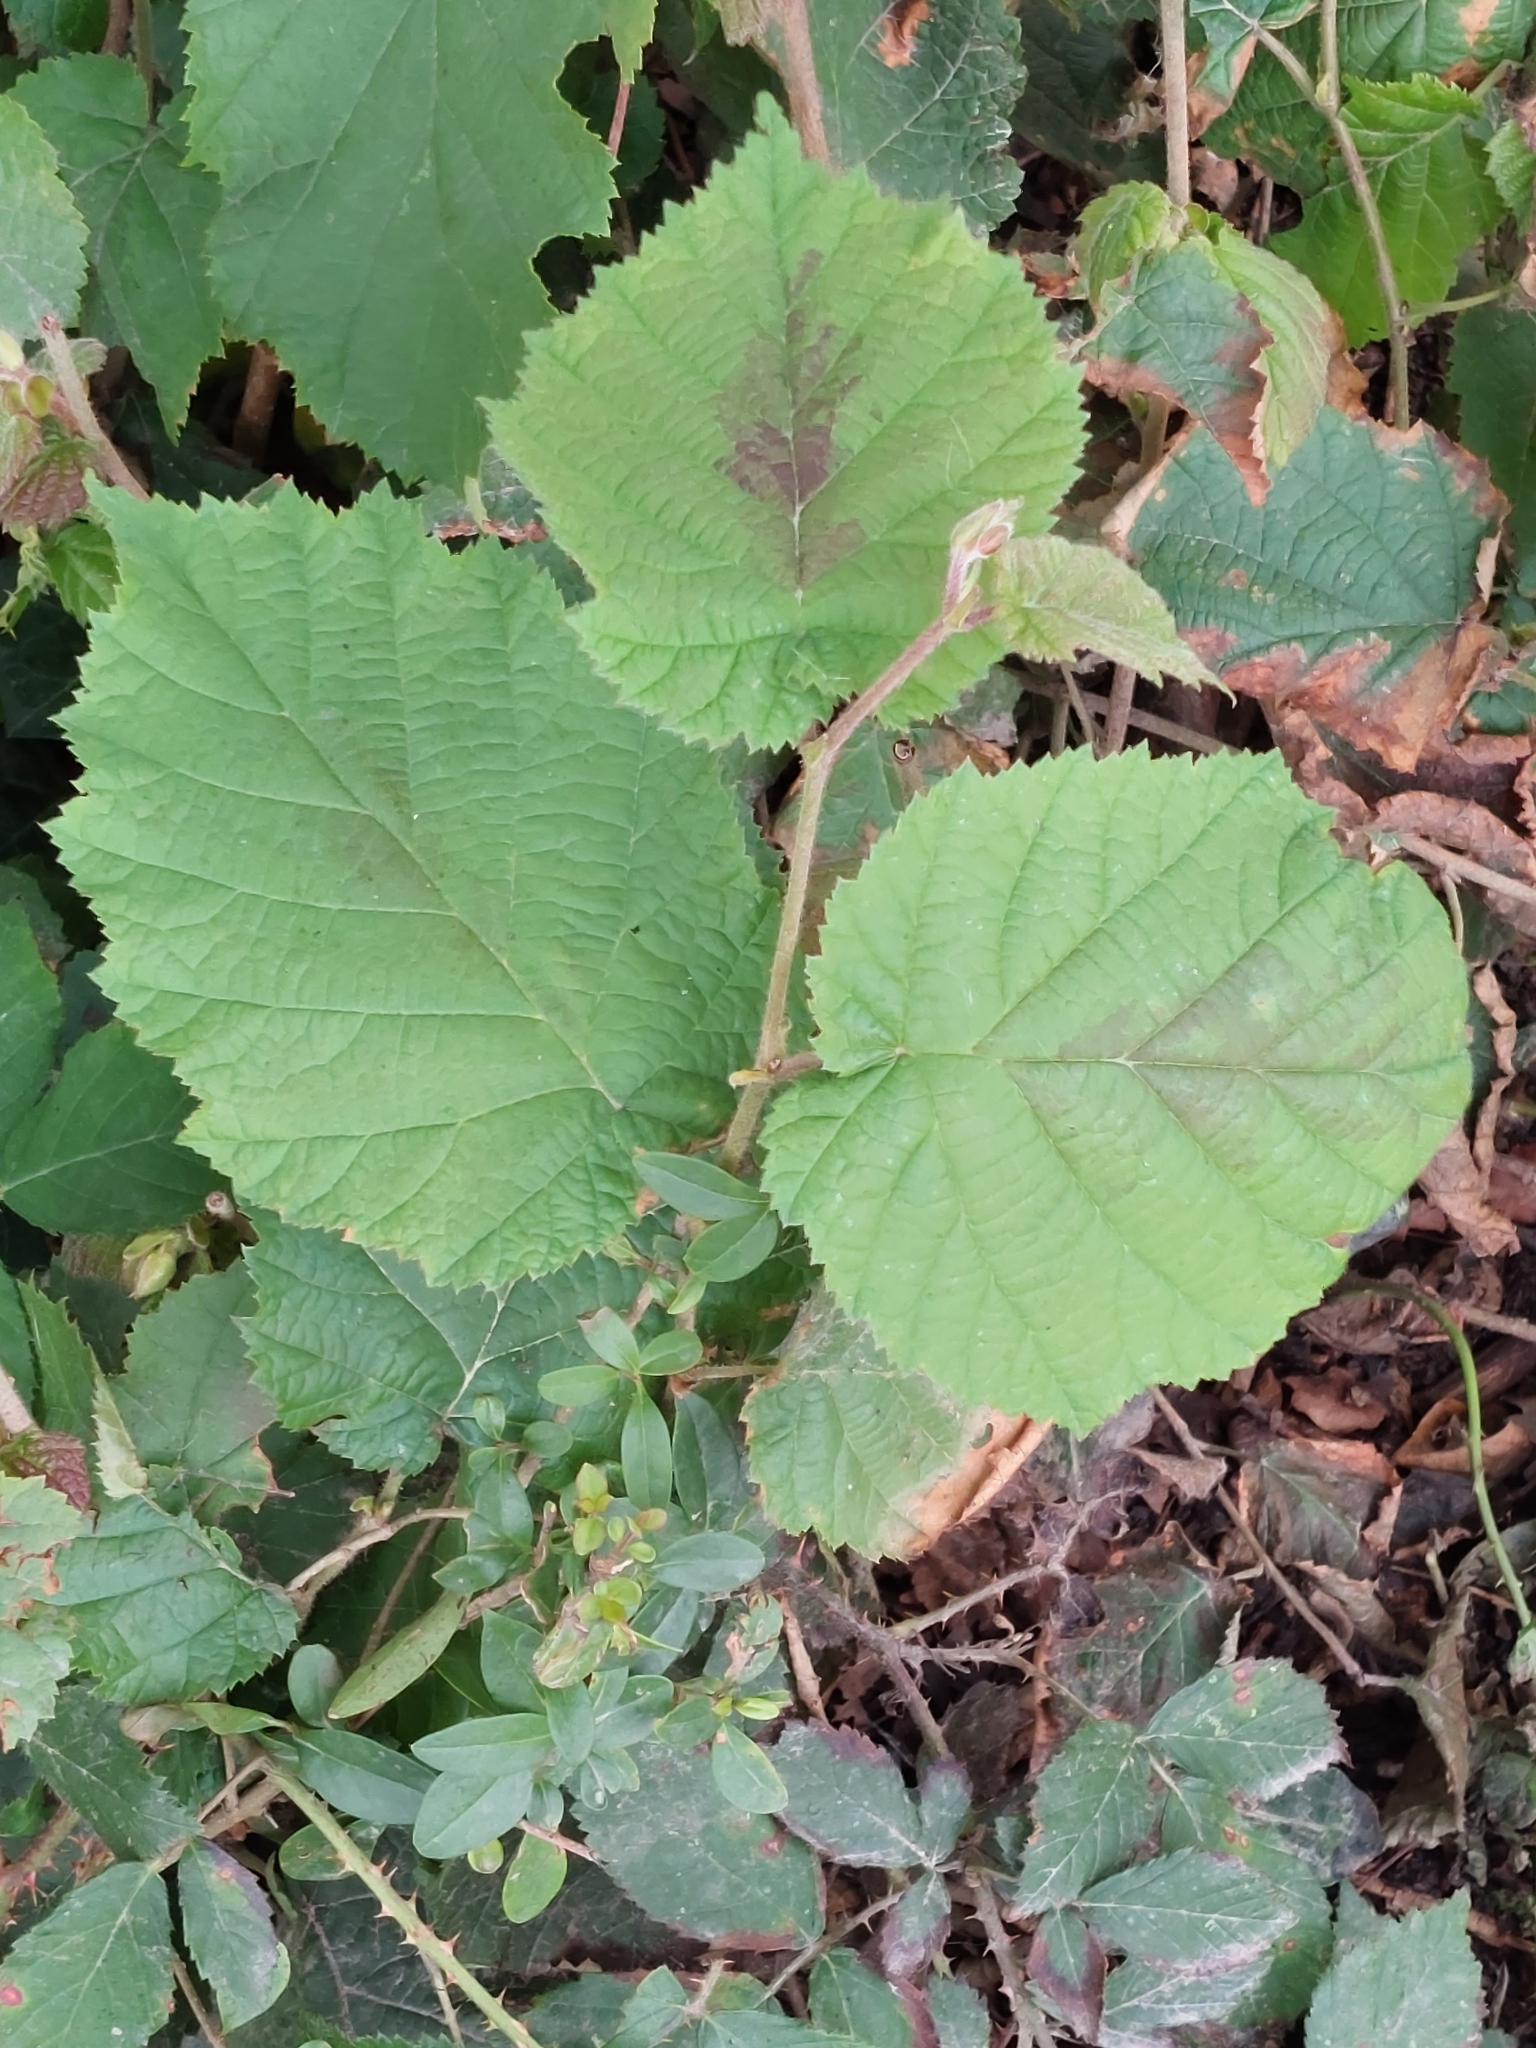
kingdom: Plantae
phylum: Tracheophyta
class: Magnoliopsida
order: Fagales
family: Betulaceae
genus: Corylus
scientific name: Corylus avellana
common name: European hazel
